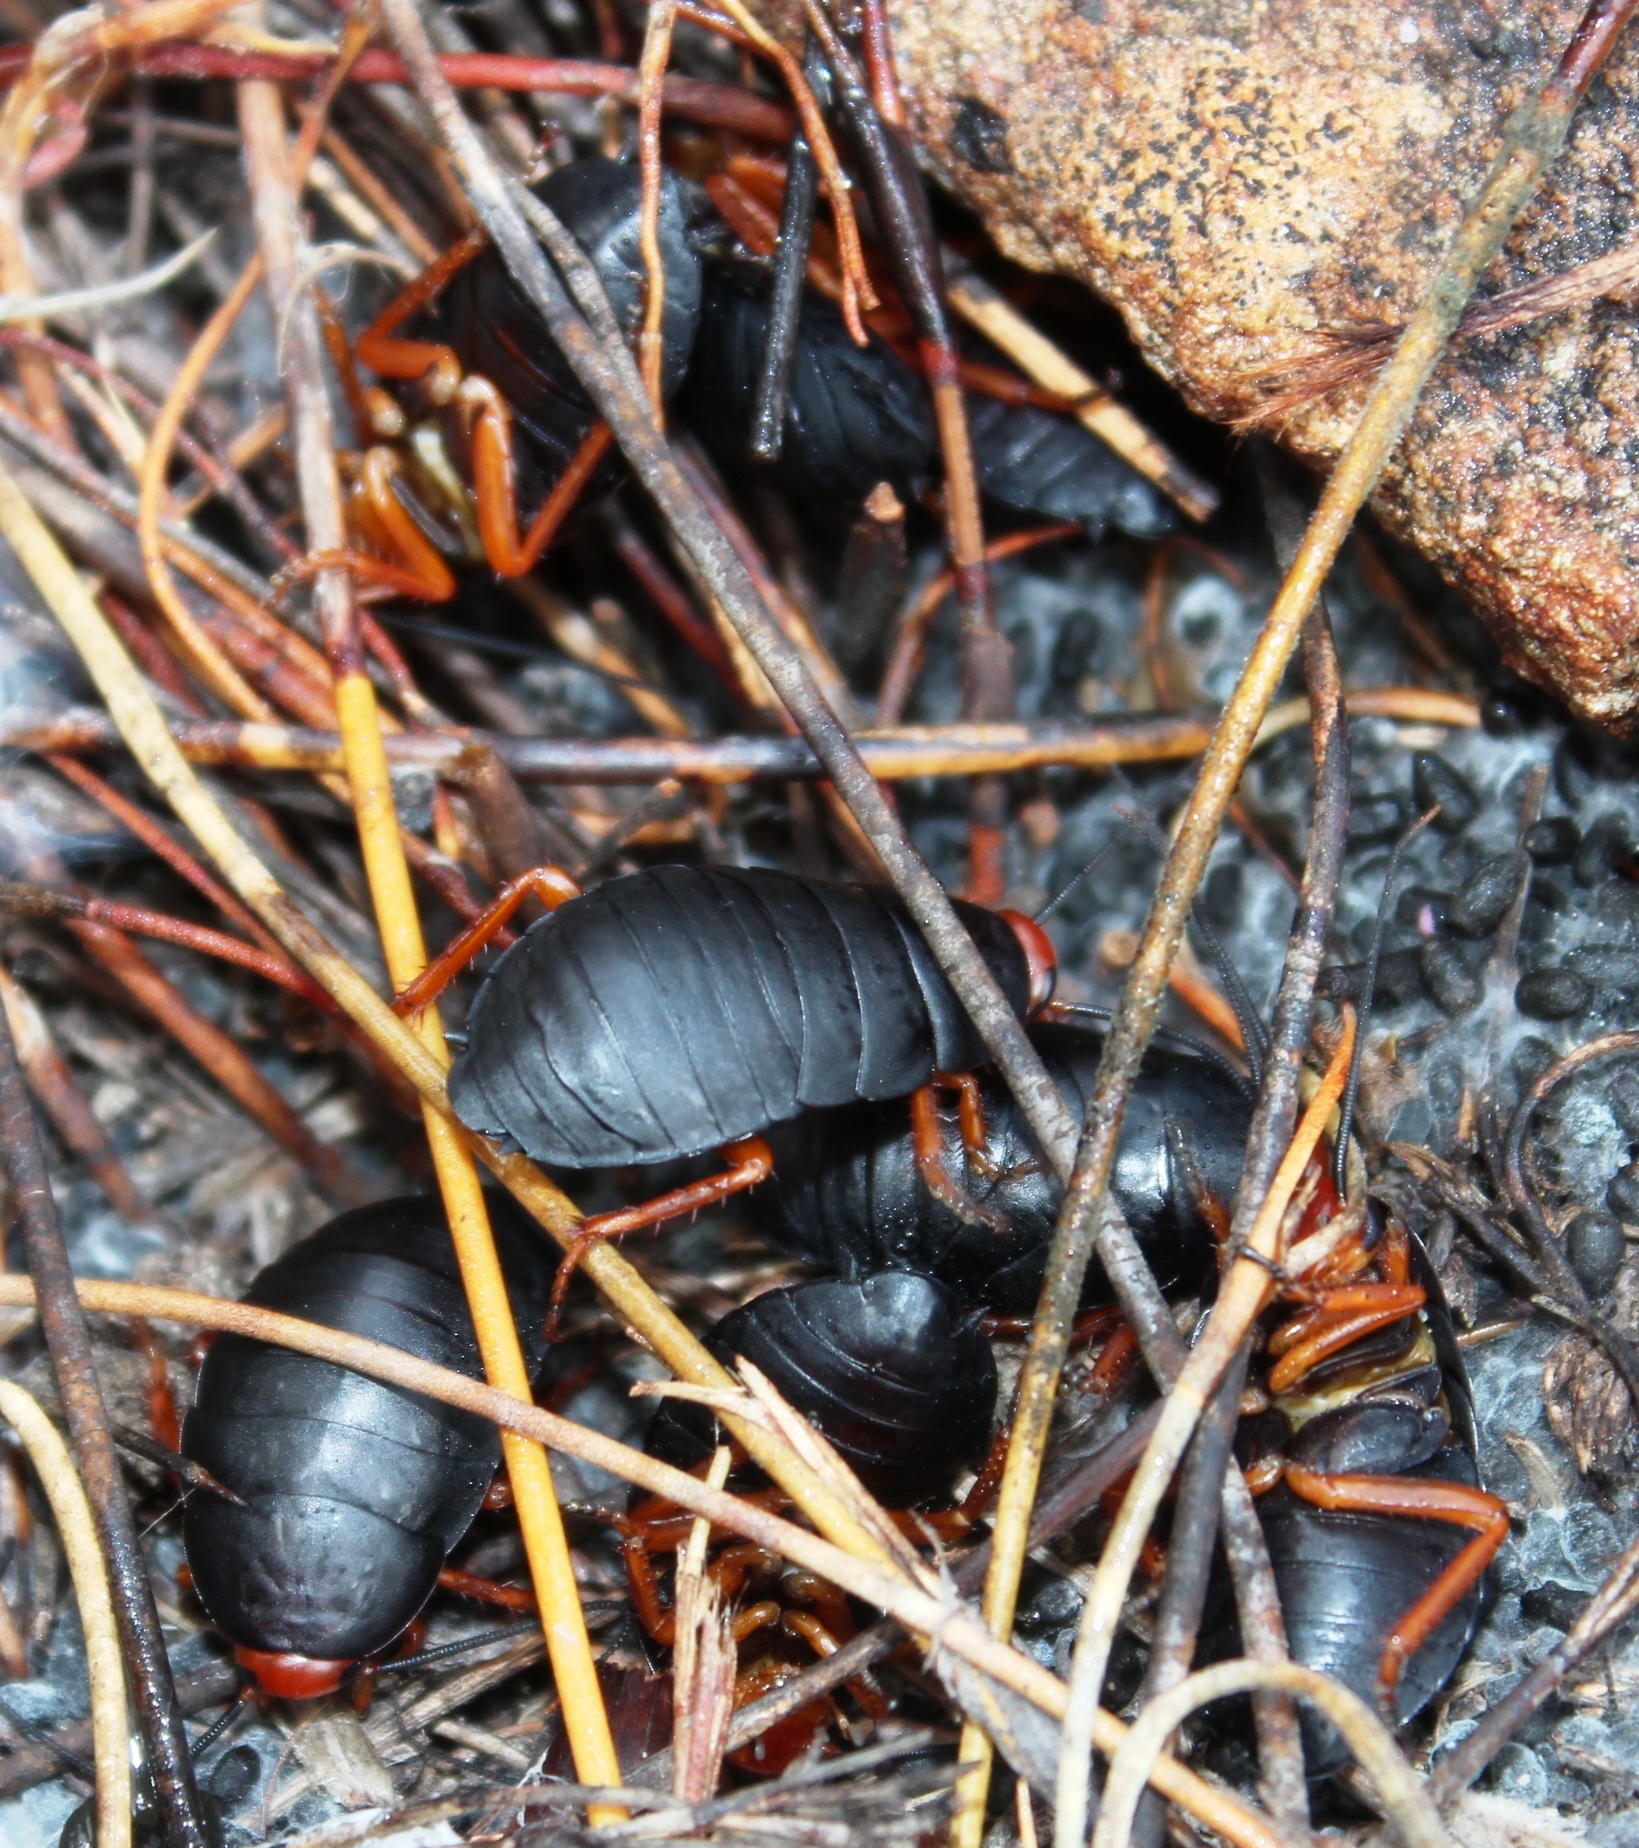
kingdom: Animalia
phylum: Arthropoda
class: Insecta
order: Blattodea
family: Blattidae
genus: Deropeltis
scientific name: Deropeltis erythrocephala
